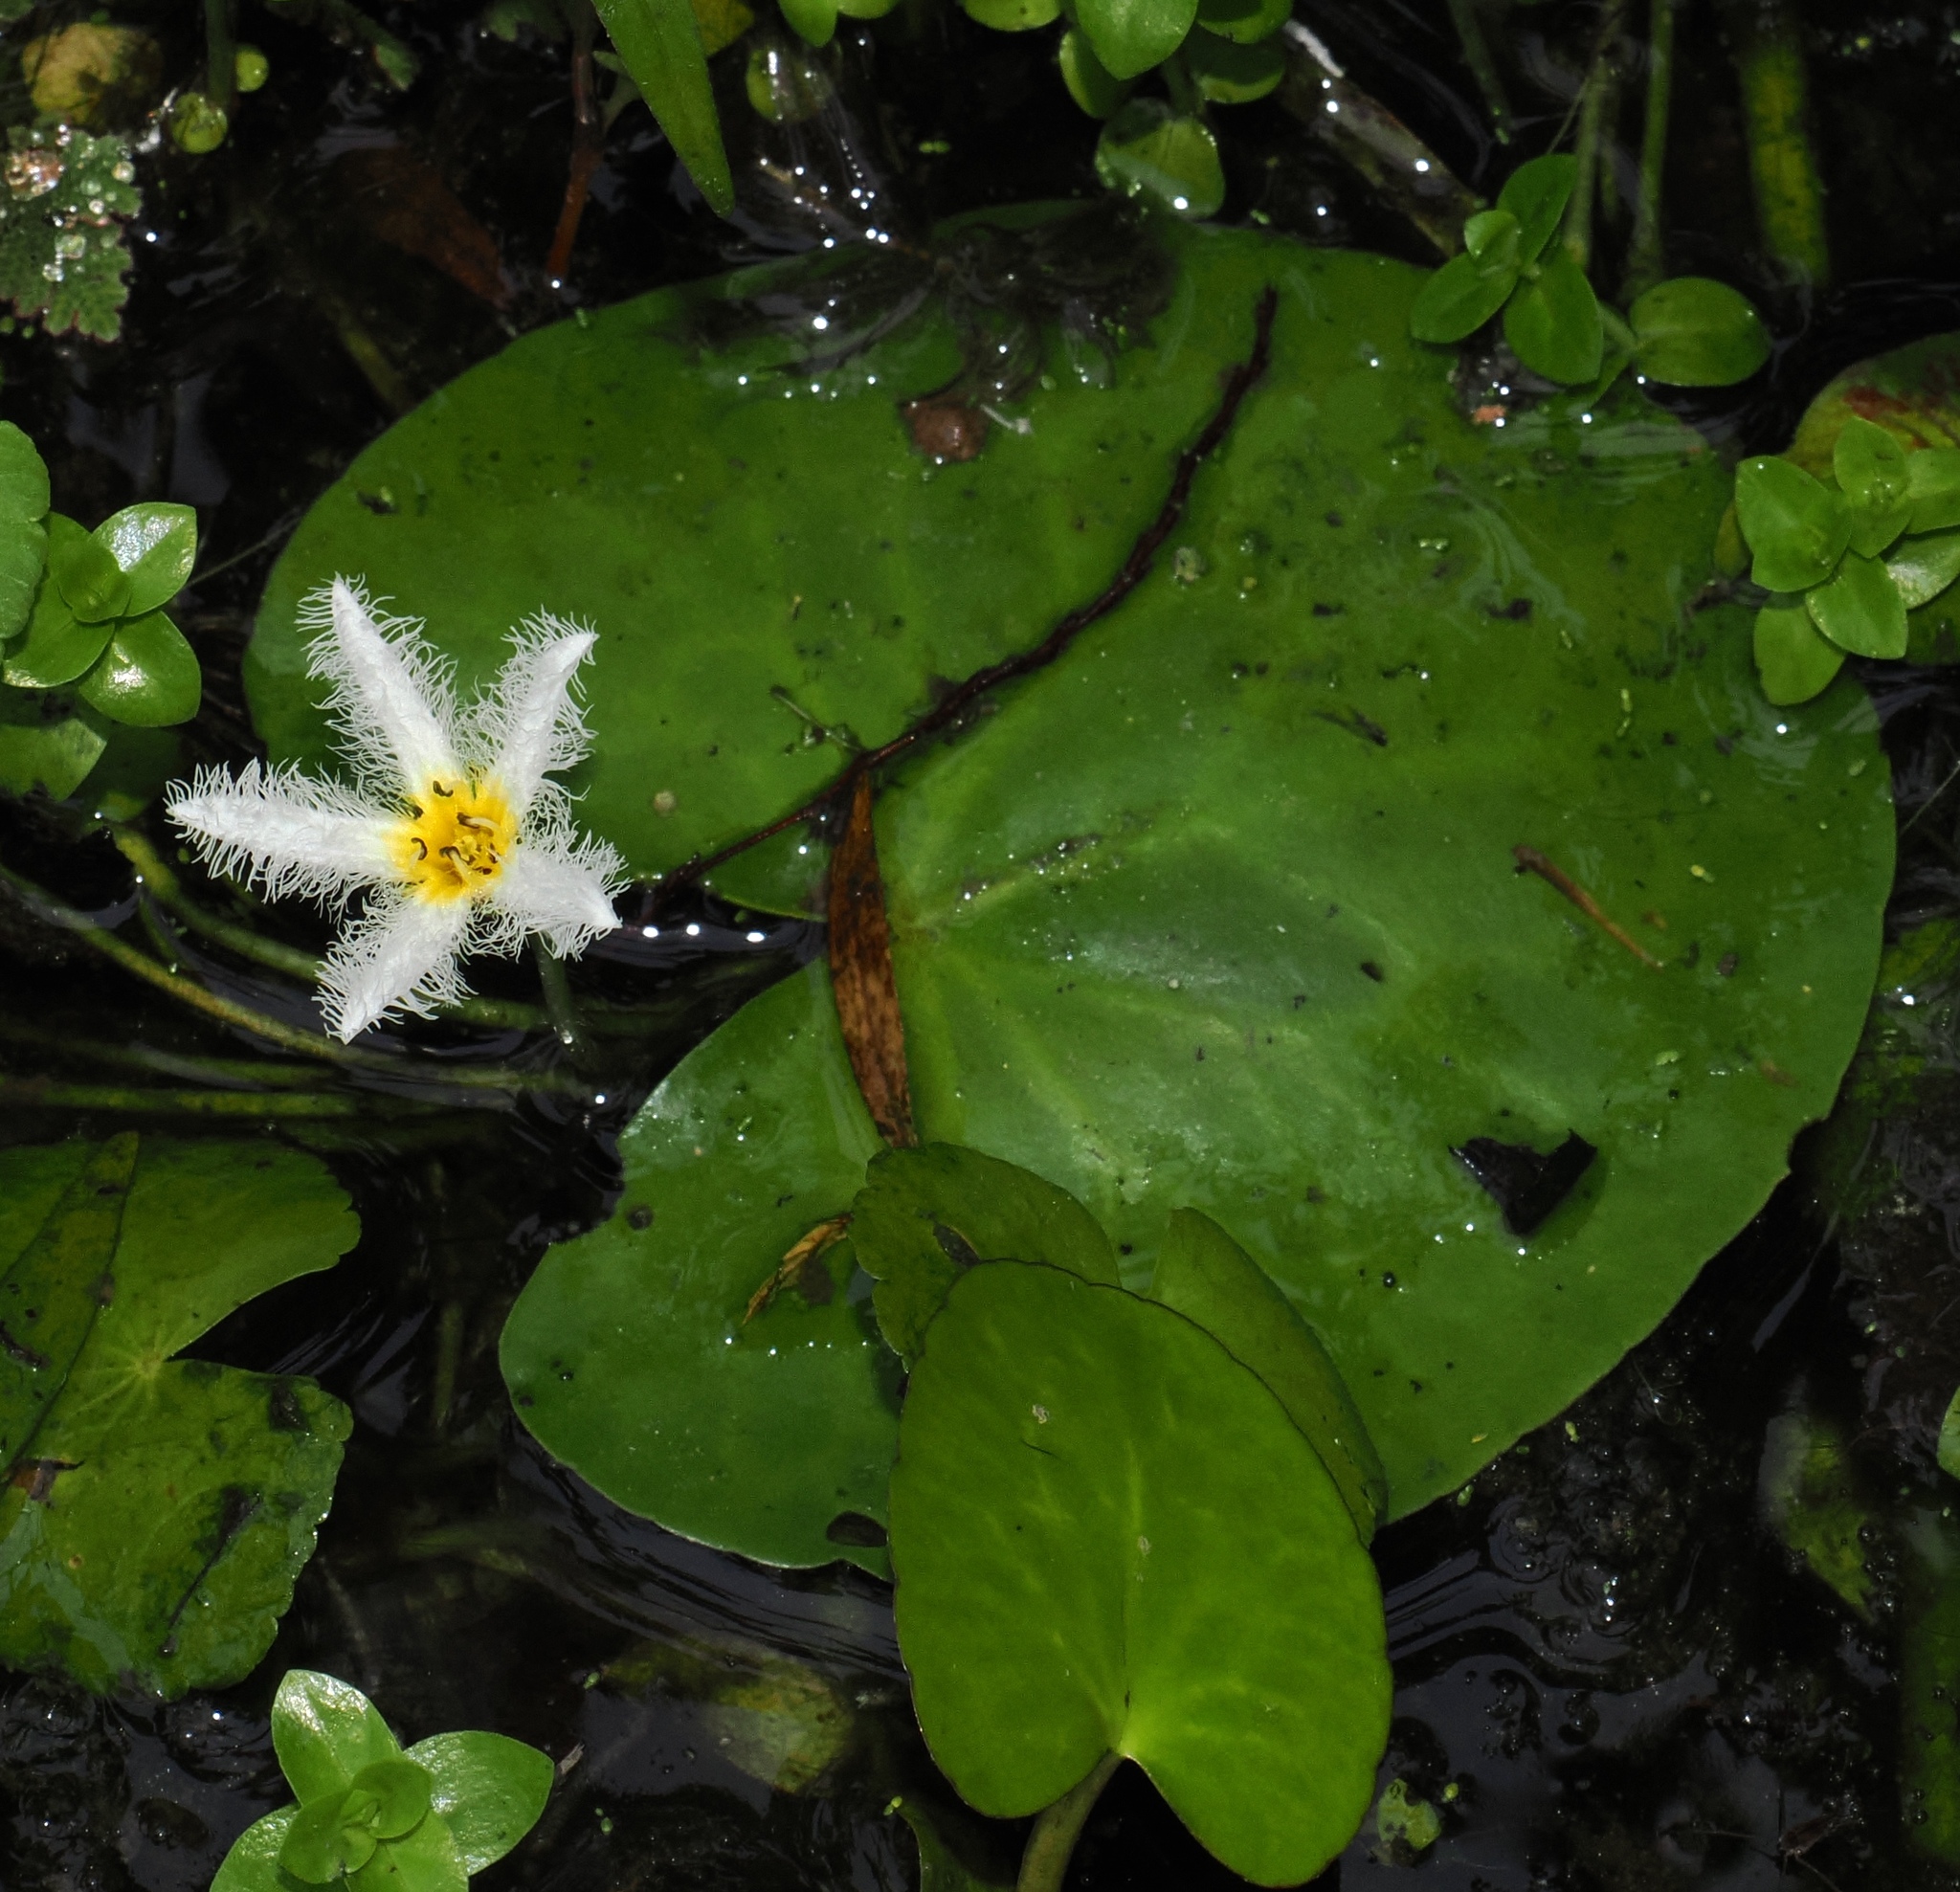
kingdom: Plantae
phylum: Tracheophyta
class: Magnoliopsida
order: Asterales
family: Menyanthaceae
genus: Nymphoides
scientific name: Nymphoides humboldtiana
